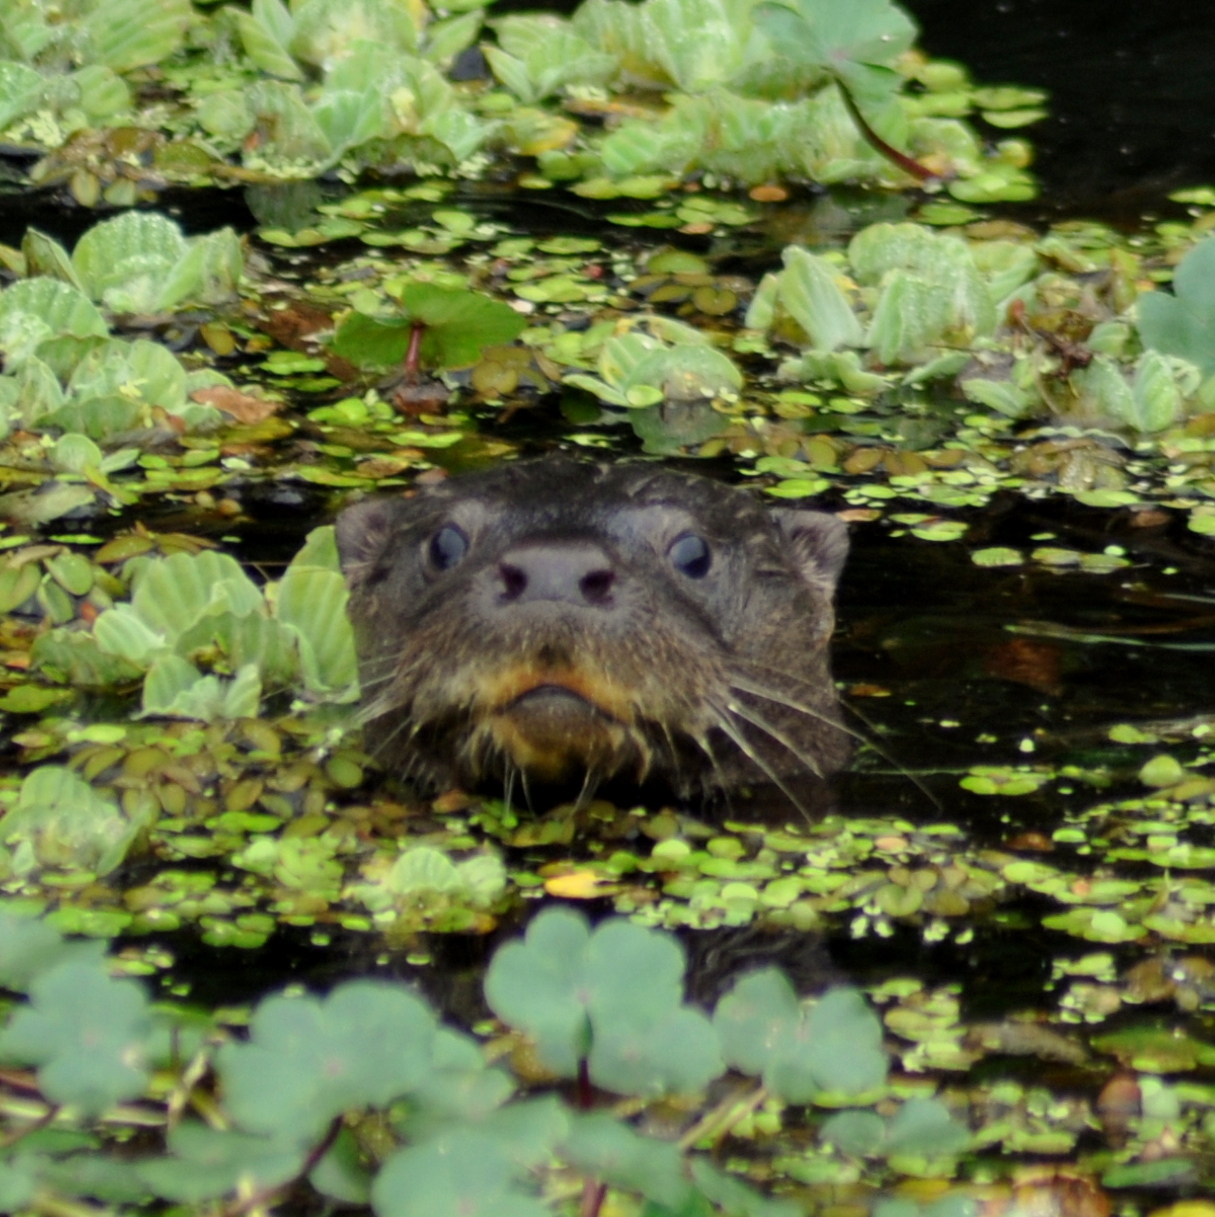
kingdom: Animalia
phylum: Chordata
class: Mammalia
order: Carnivora
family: Mustelidae
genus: Lontra
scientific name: Lontra longicaudis
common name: Neotropical otter
